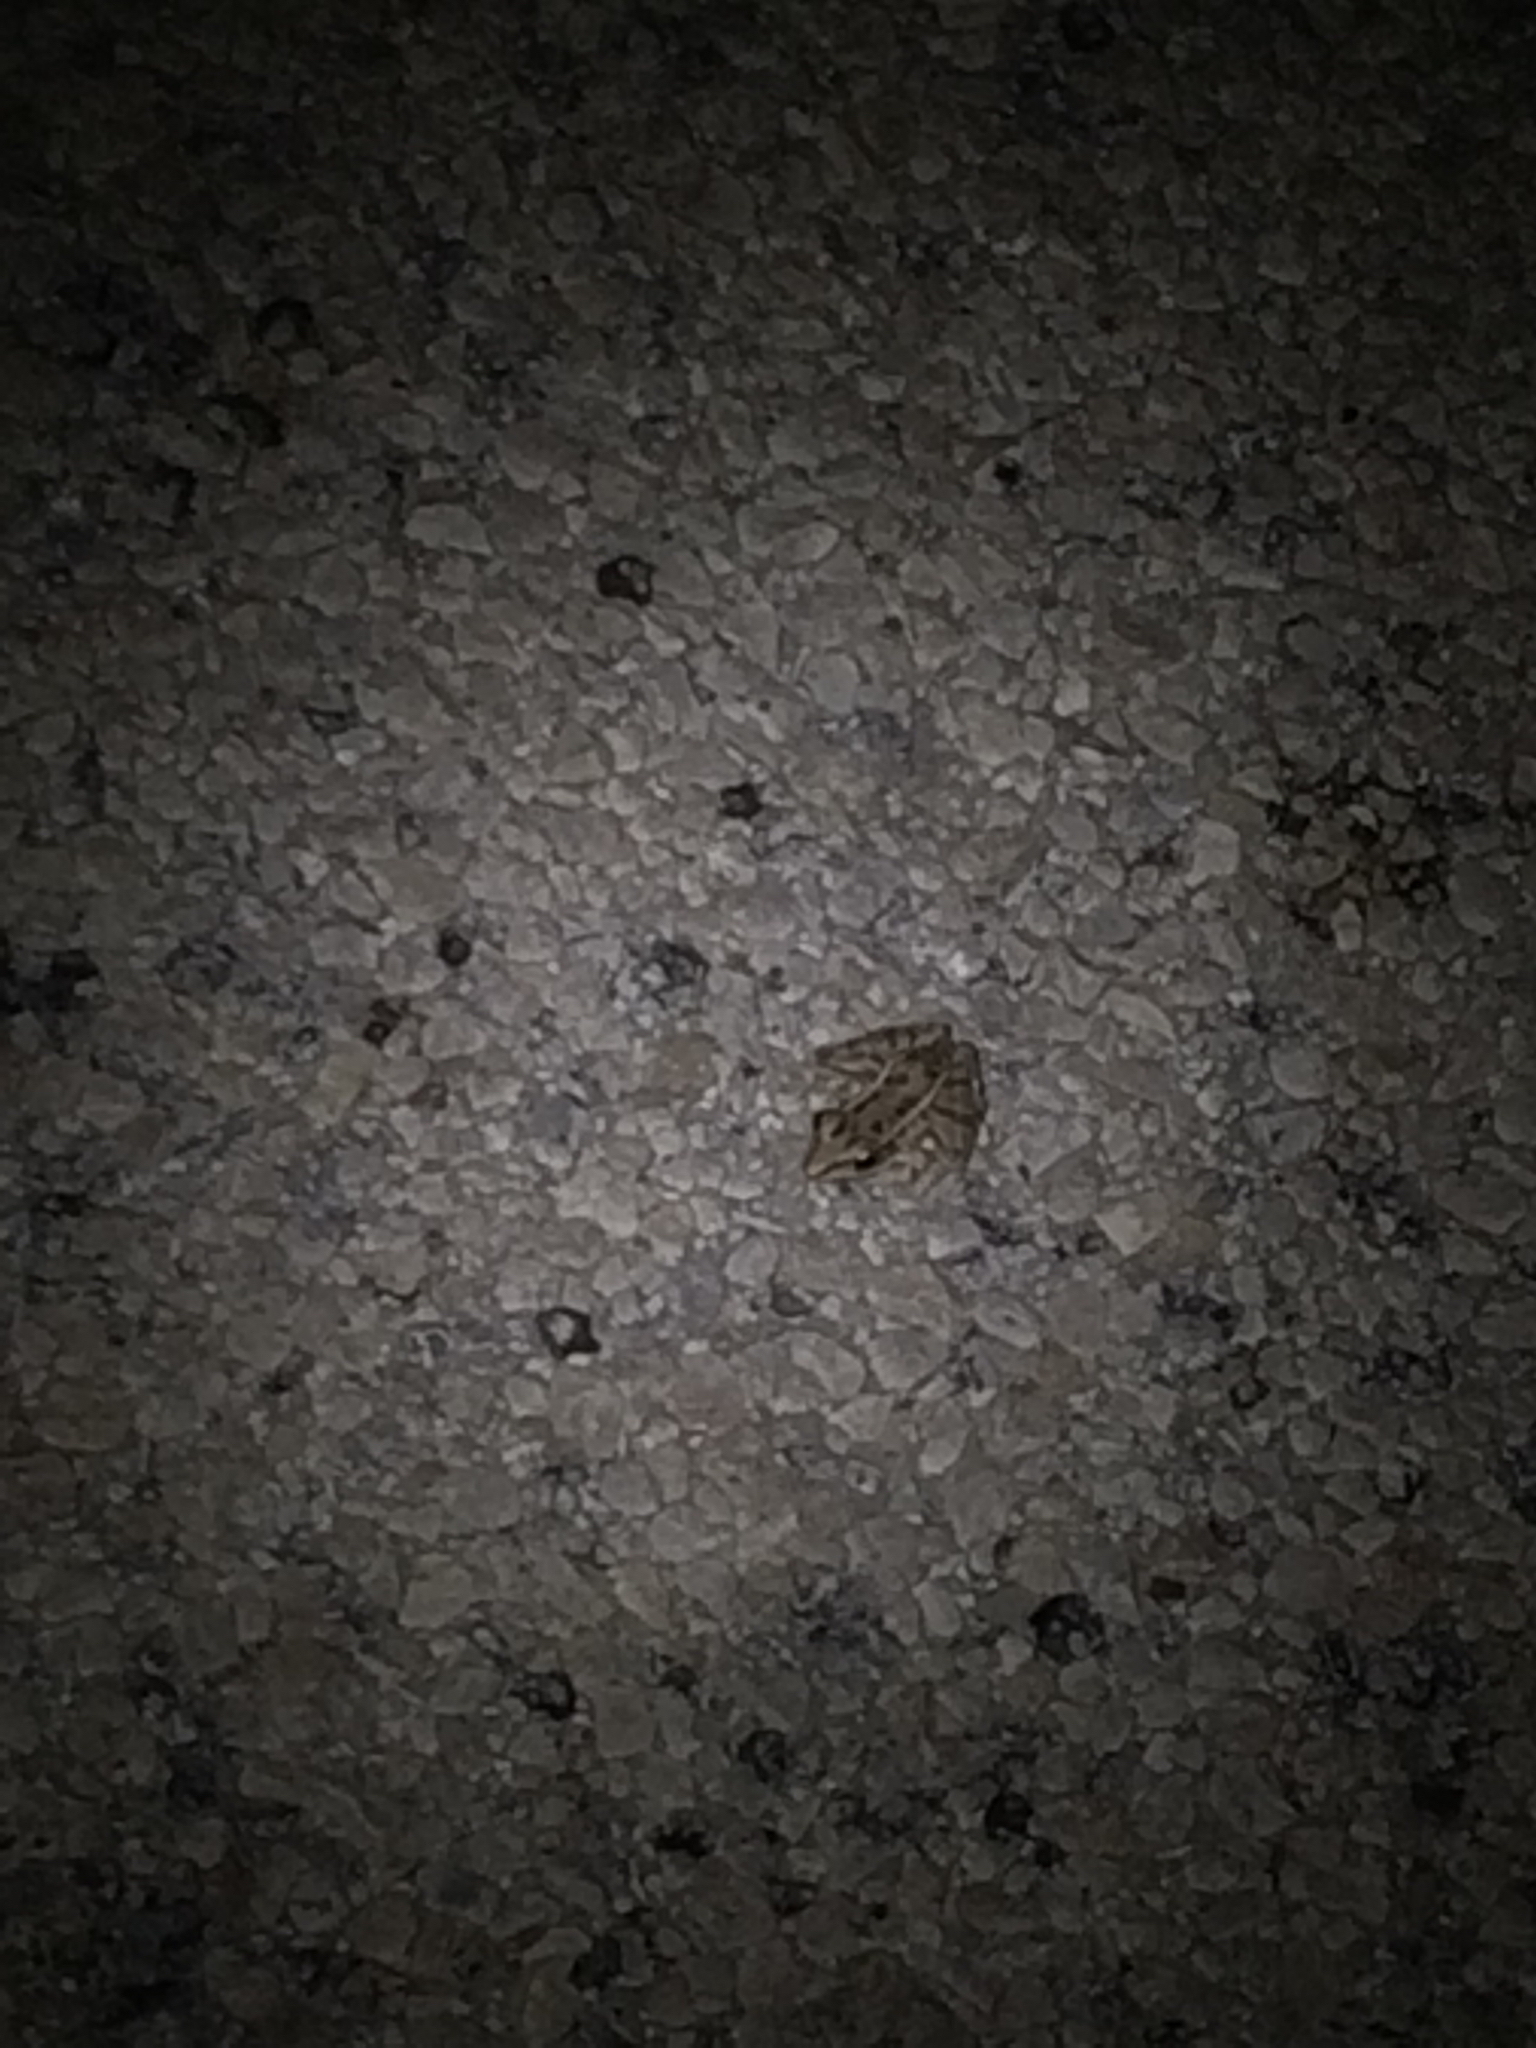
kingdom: Animalia
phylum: Chordata
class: Amphibia
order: Anura
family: Ranidae
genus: Lithobates
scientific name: Lithobates sphenocephalus
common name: Southern leopard frog
